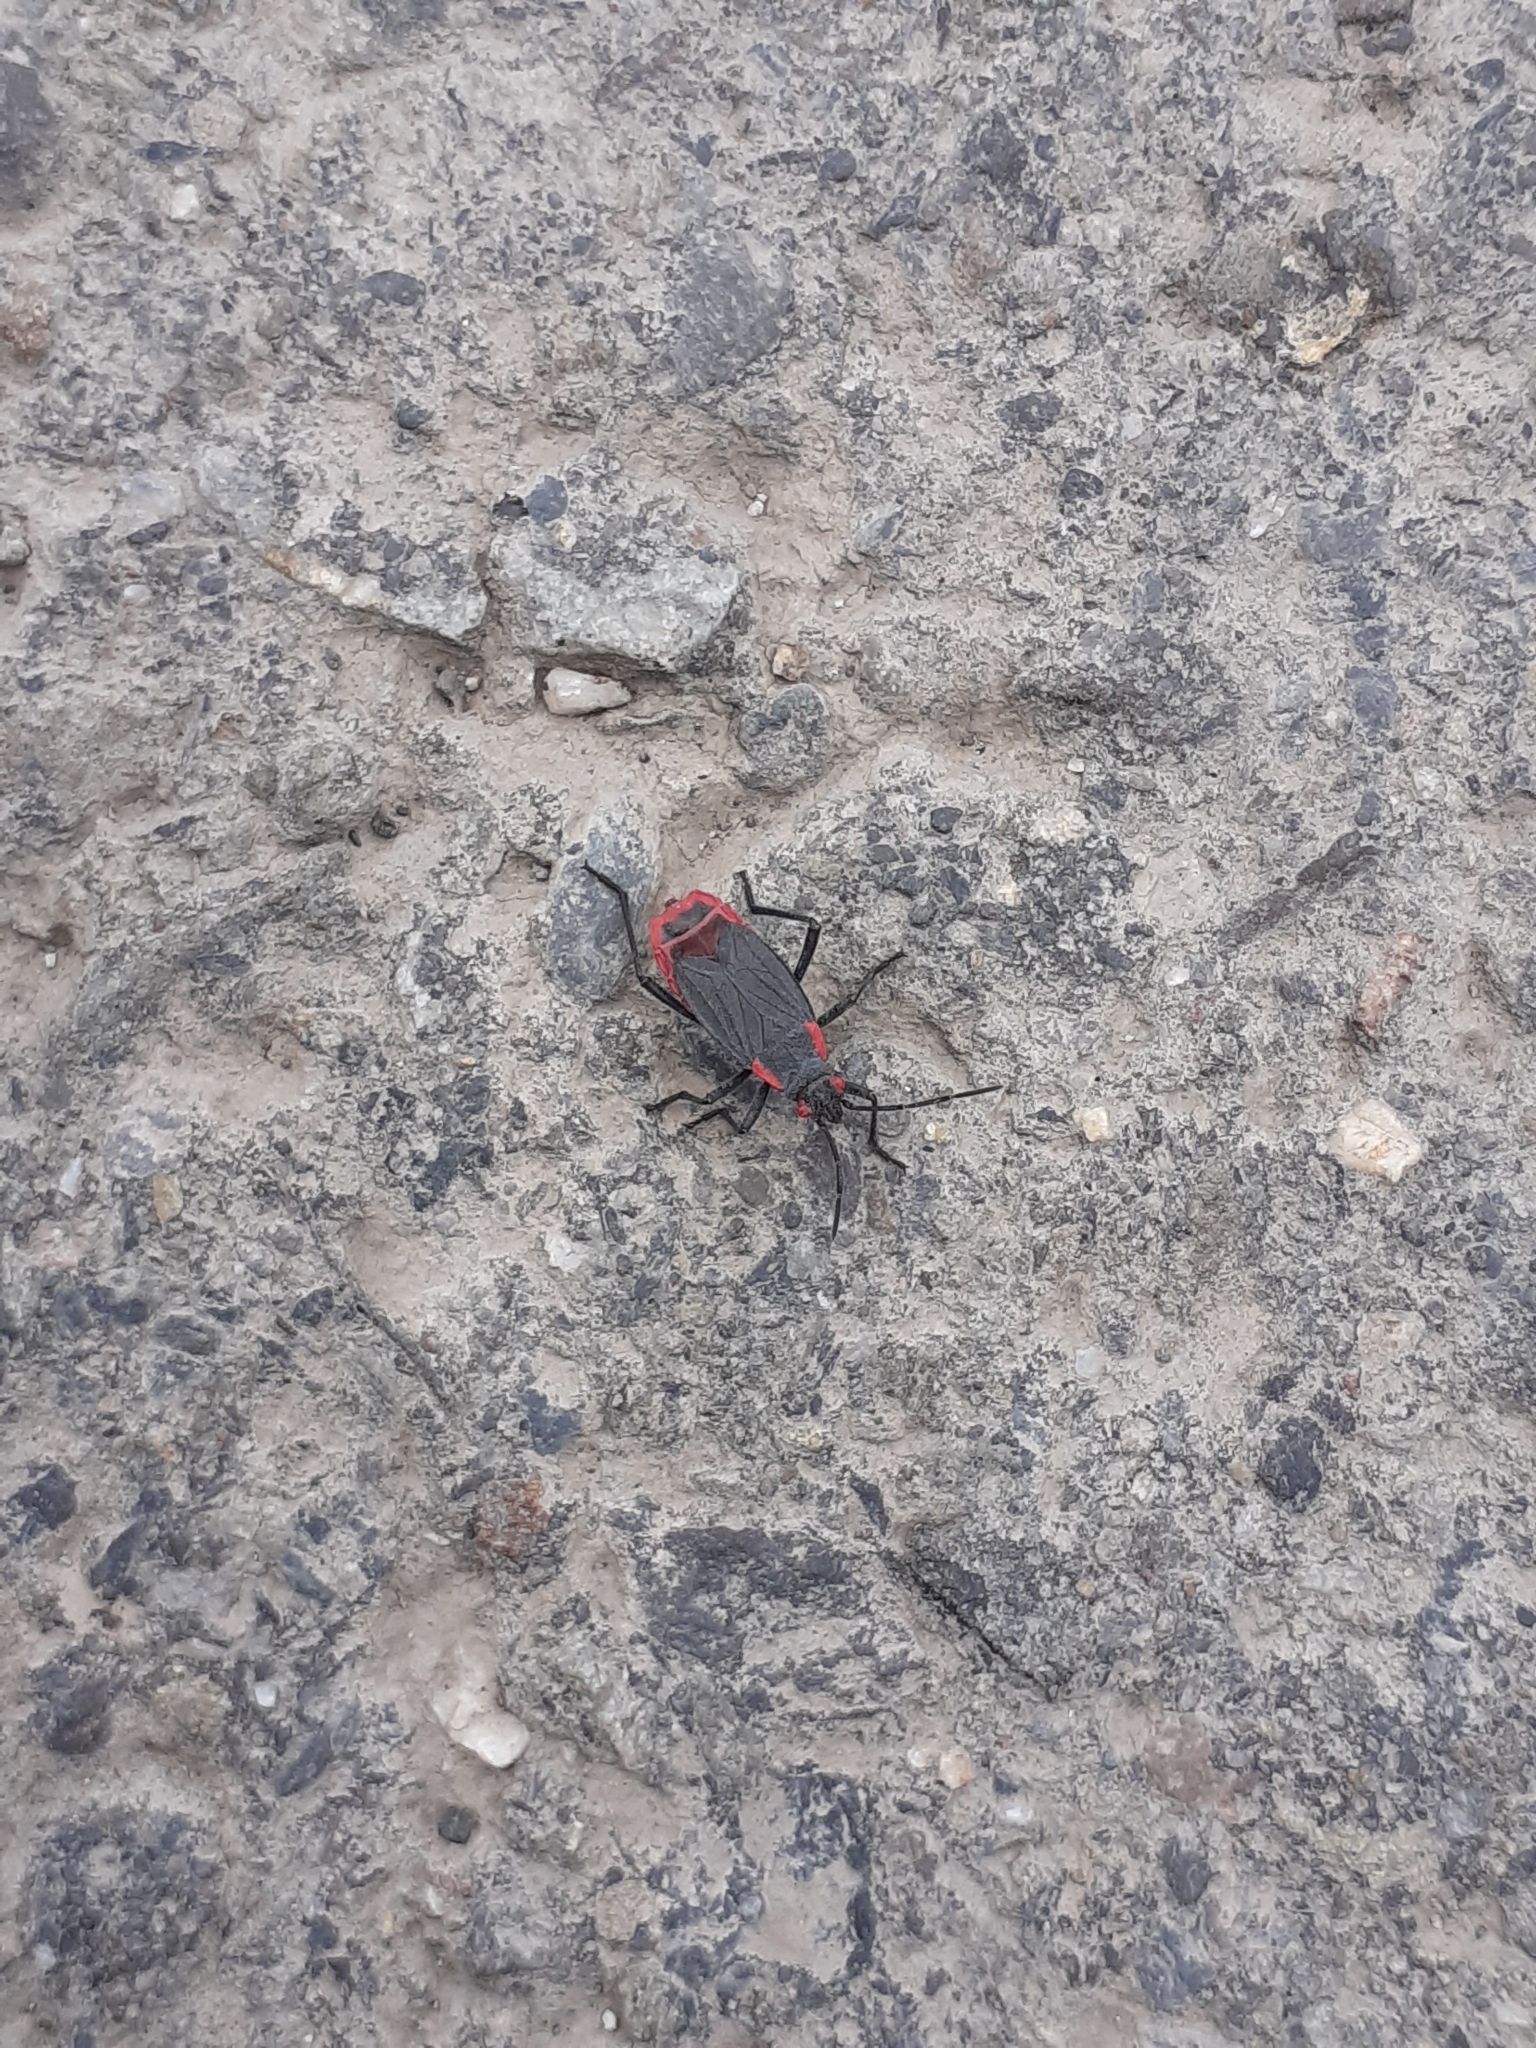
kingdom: Animalia
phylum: Arthropoda
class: Insecta
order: Hemiptera
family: Rhopalidae
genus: Jadera
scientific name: Jadera haematoloma
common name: Red-shouldered bug
